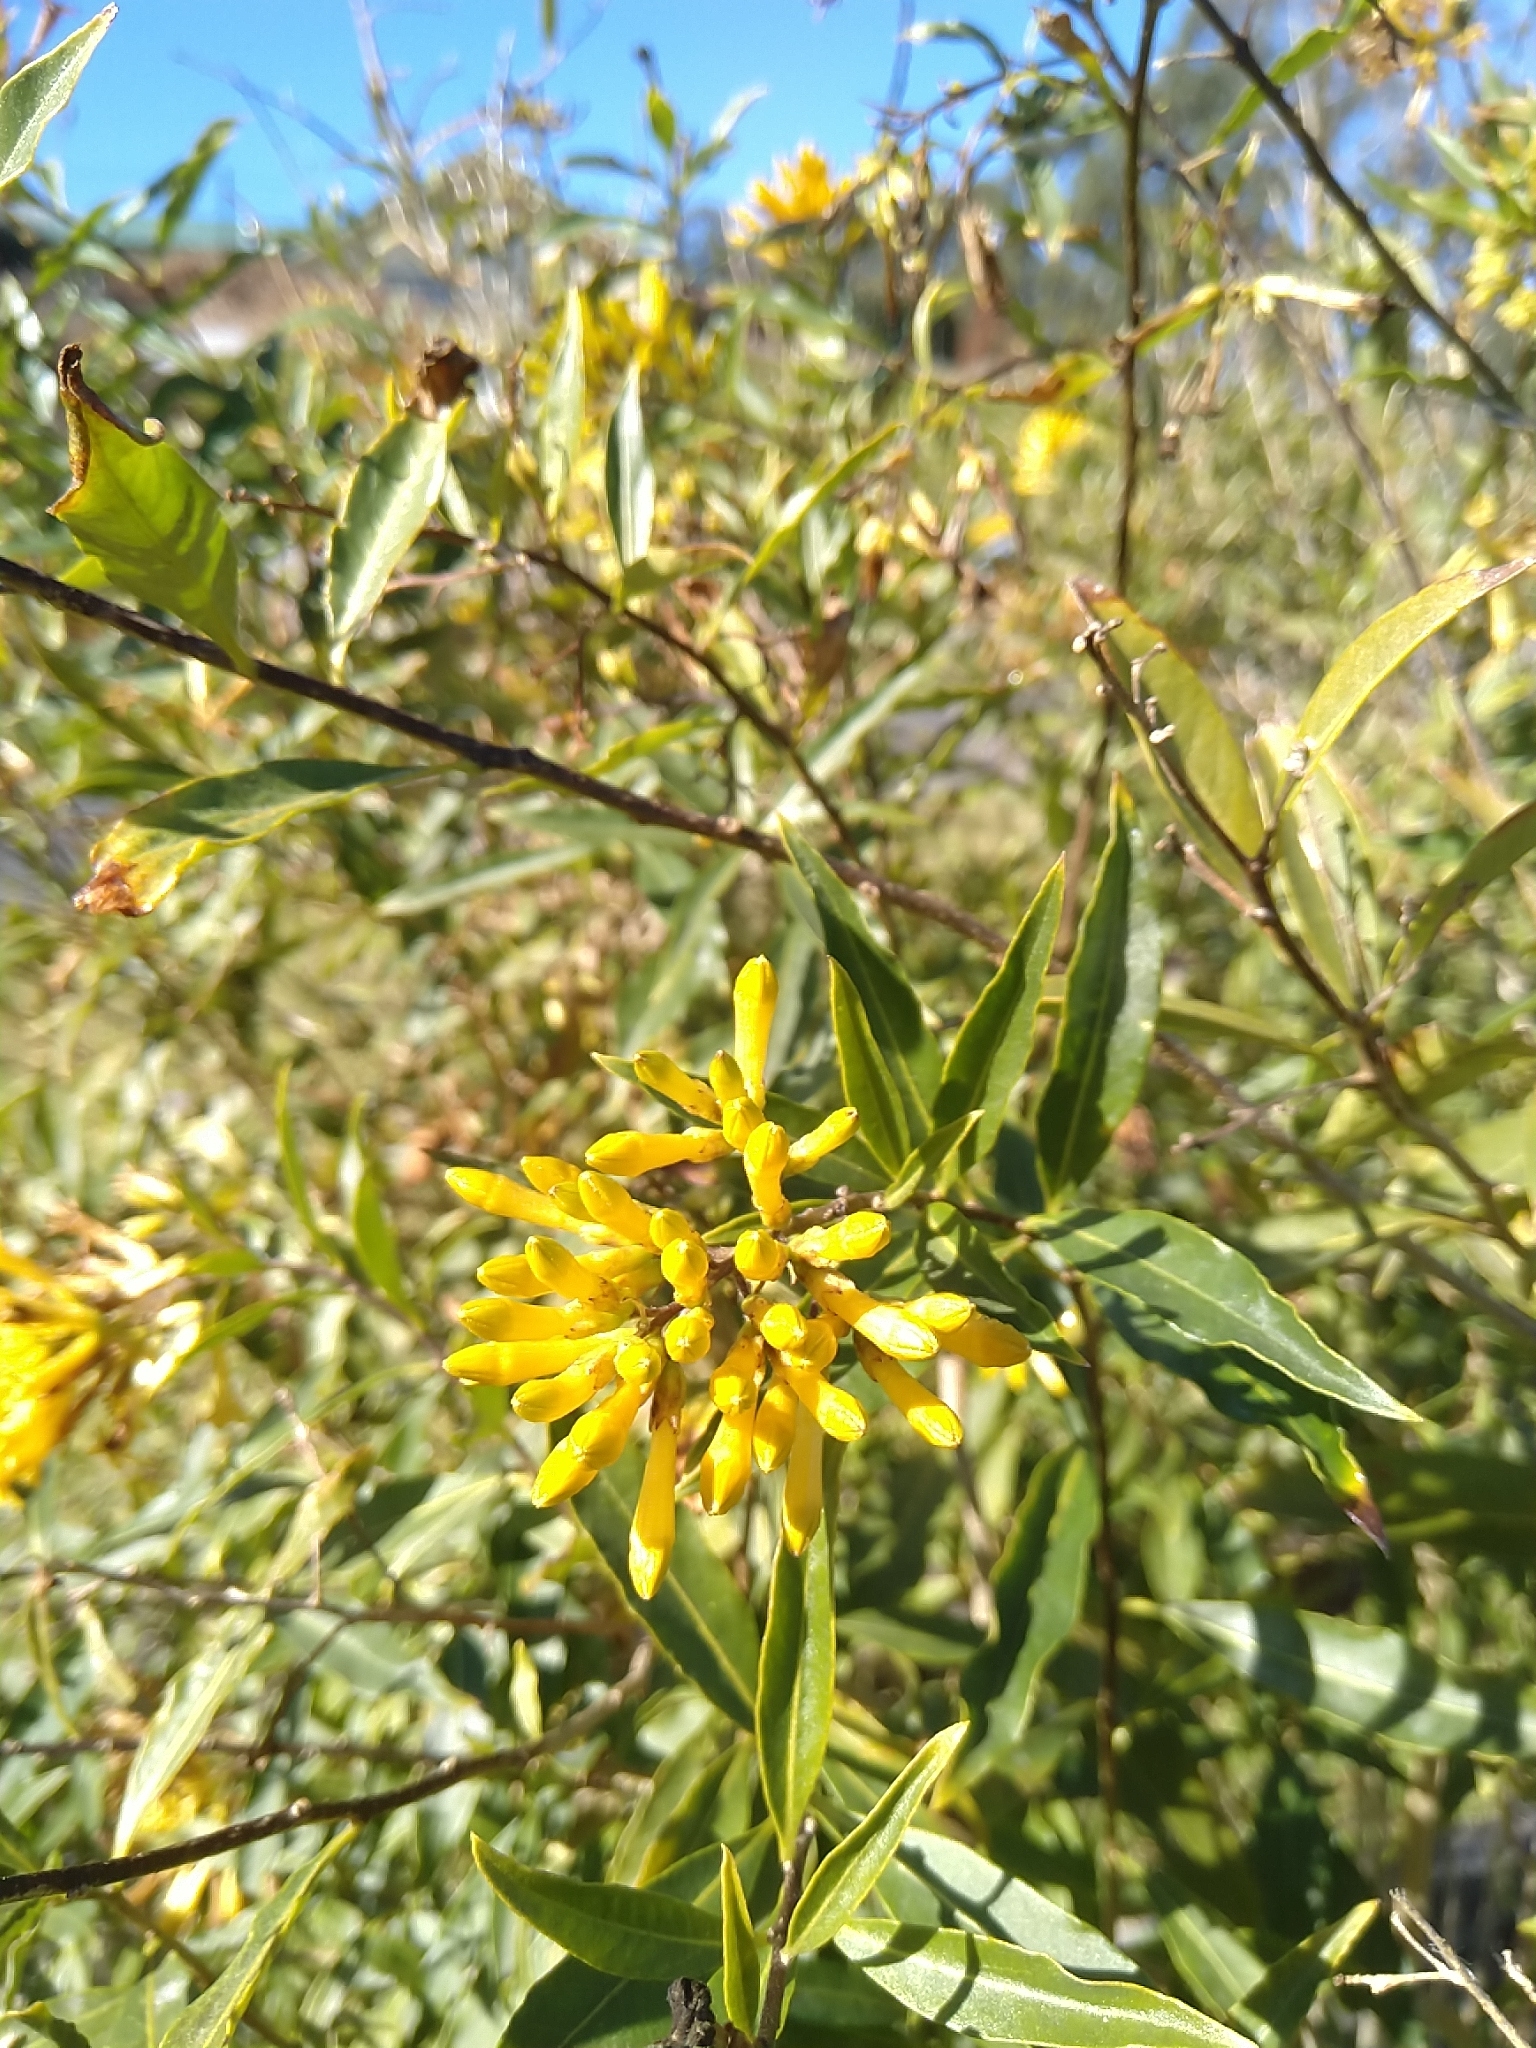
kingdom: Plantae
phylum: Tracheophyta
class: Magnoliopsida
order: Solanales
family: Solanaceae
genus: Cestrum
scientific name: Cestrum parqui
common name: Chilean cestrum
